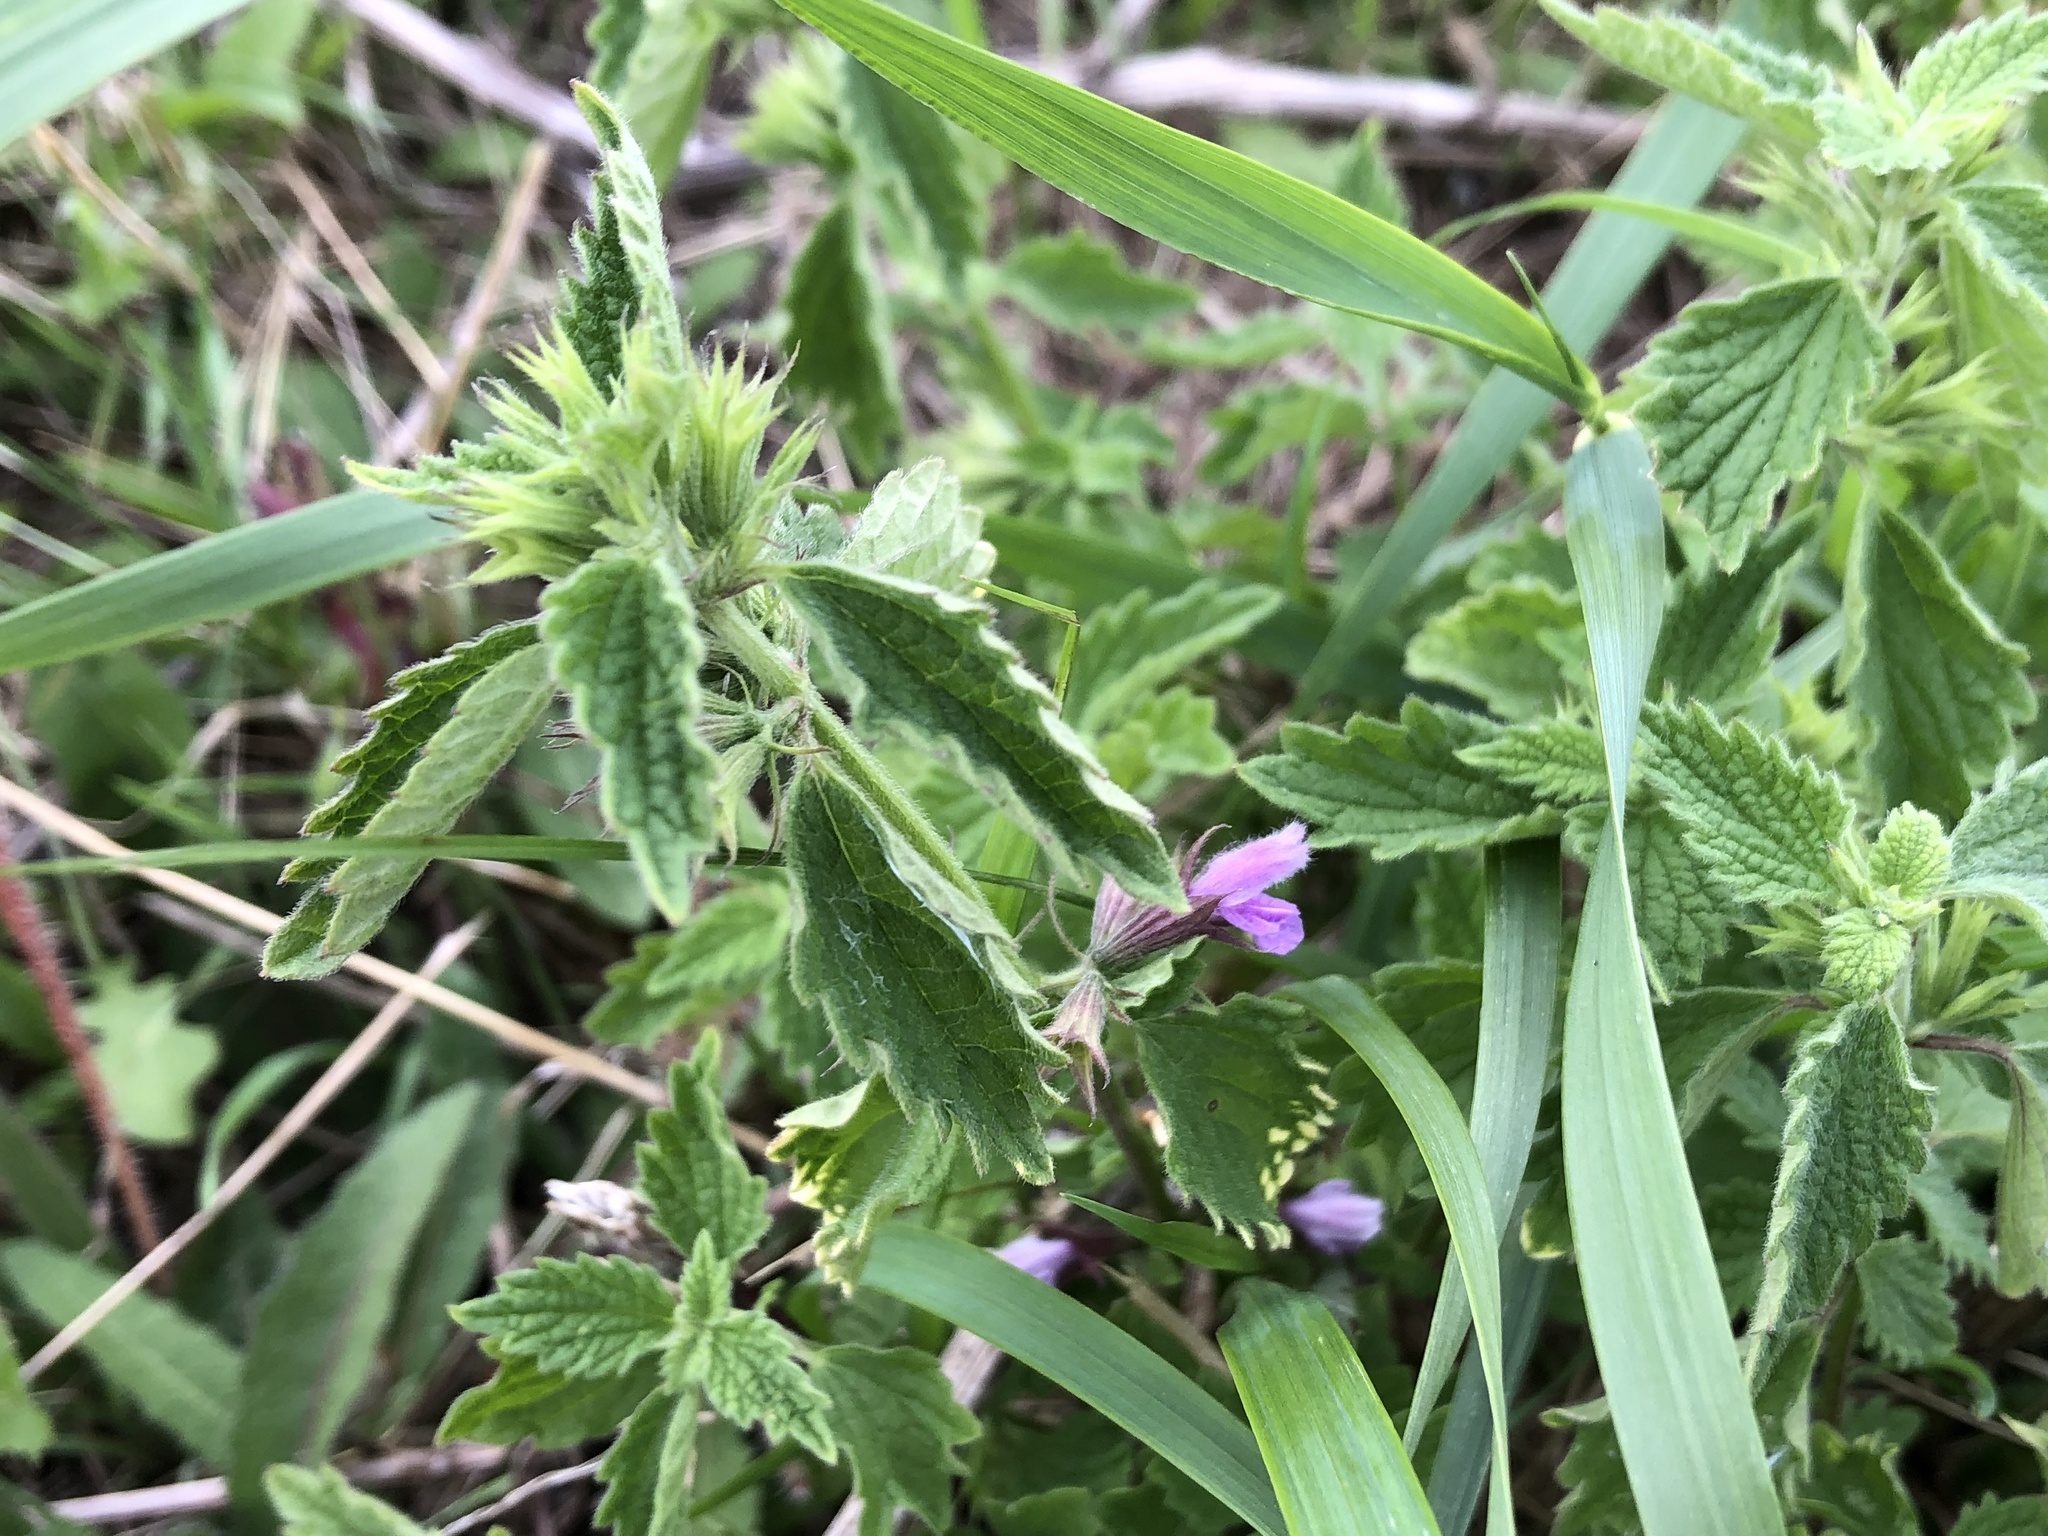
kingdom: Plantae
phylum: Tracheophyta
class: Magnoliopsida
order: Lamiales
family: Lamiaceae
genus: Ballota
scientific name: Ballota nigra
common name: Black horehound
